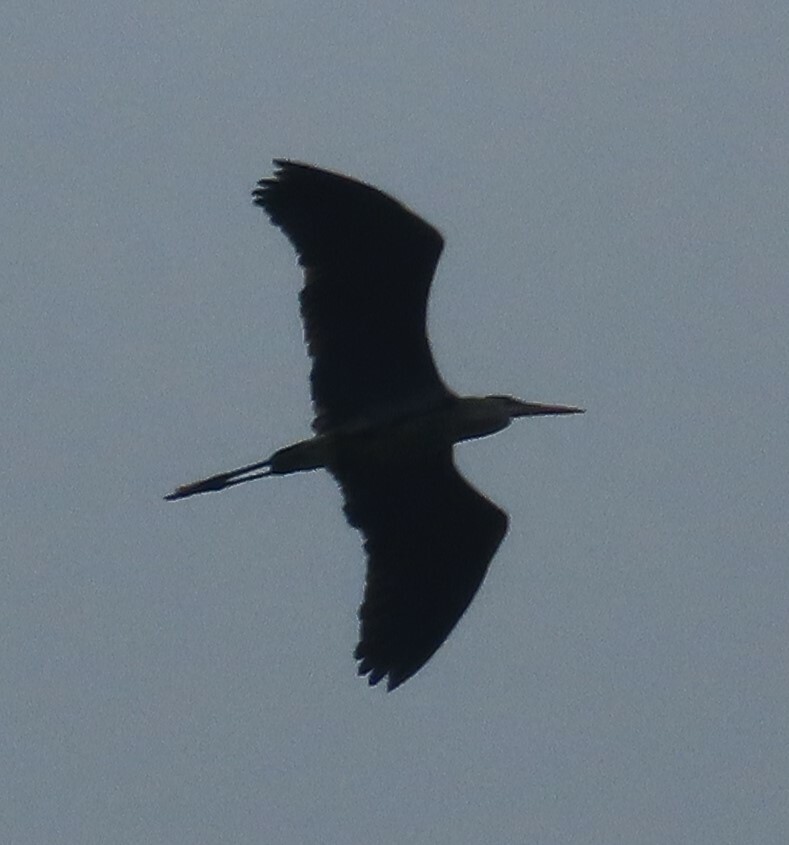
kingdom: Animalia
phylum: Chordata
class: Aves
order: Pelecaniformes
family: Ardeidae
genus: Ardea
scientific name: Ardea herodias
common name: Great blue heron
